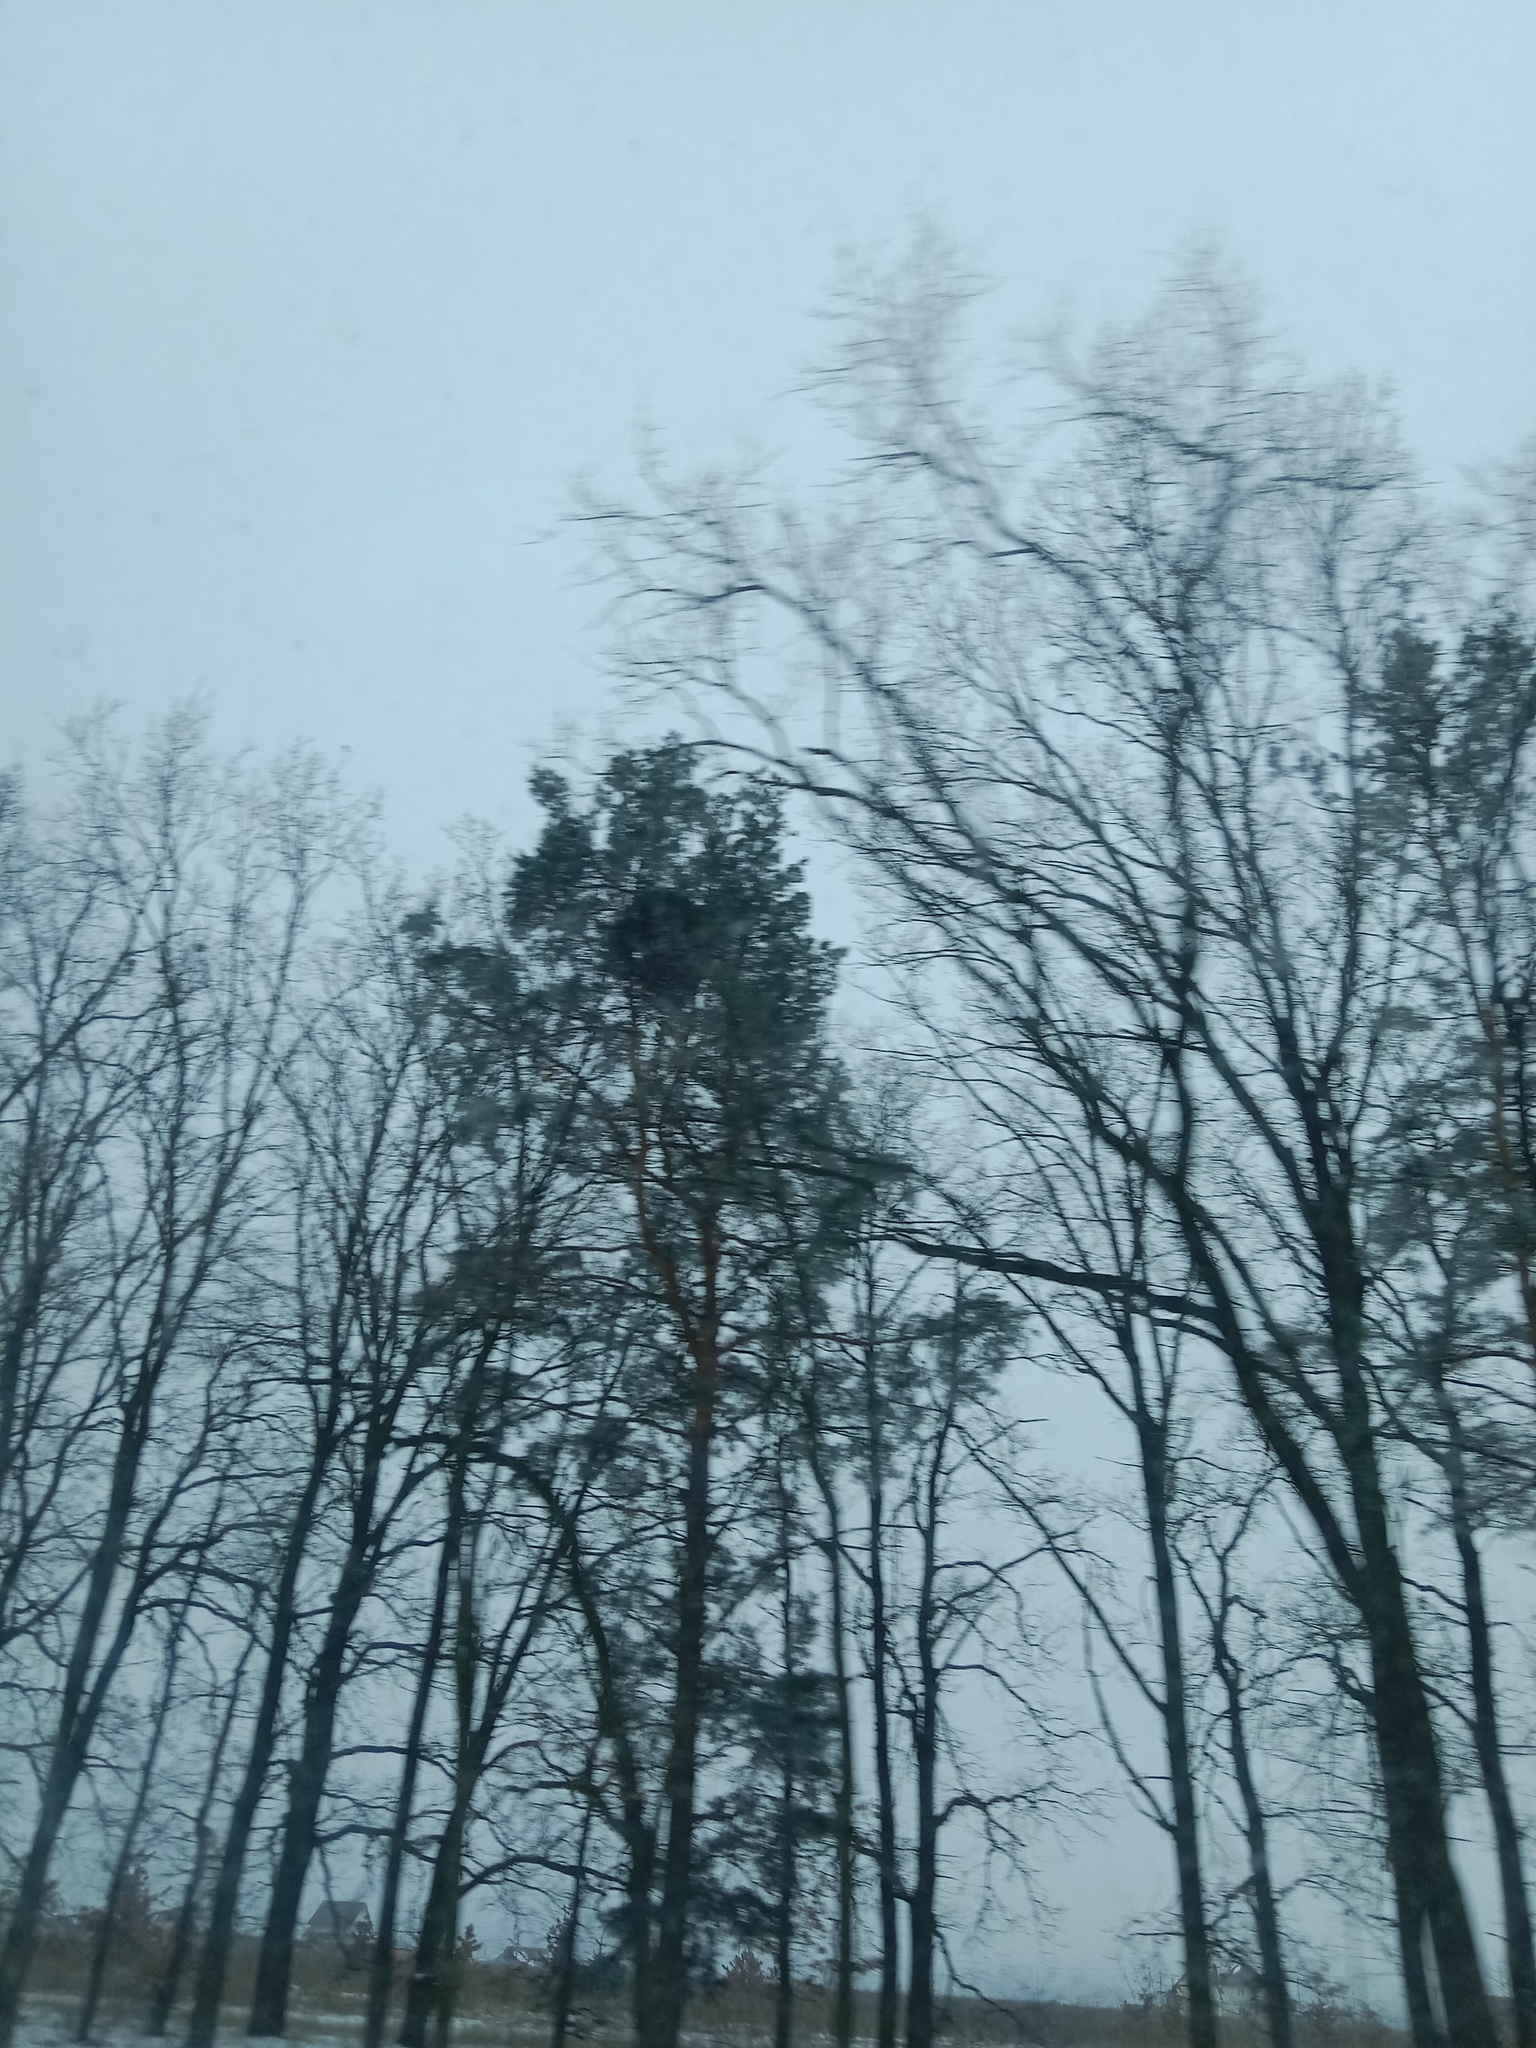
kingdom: Plantae
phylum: Tracheophyta
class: Magnoliopsida
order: Santalales
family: Viscaceae
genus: Viscum
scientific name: Viscum album
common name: Mistletoe
